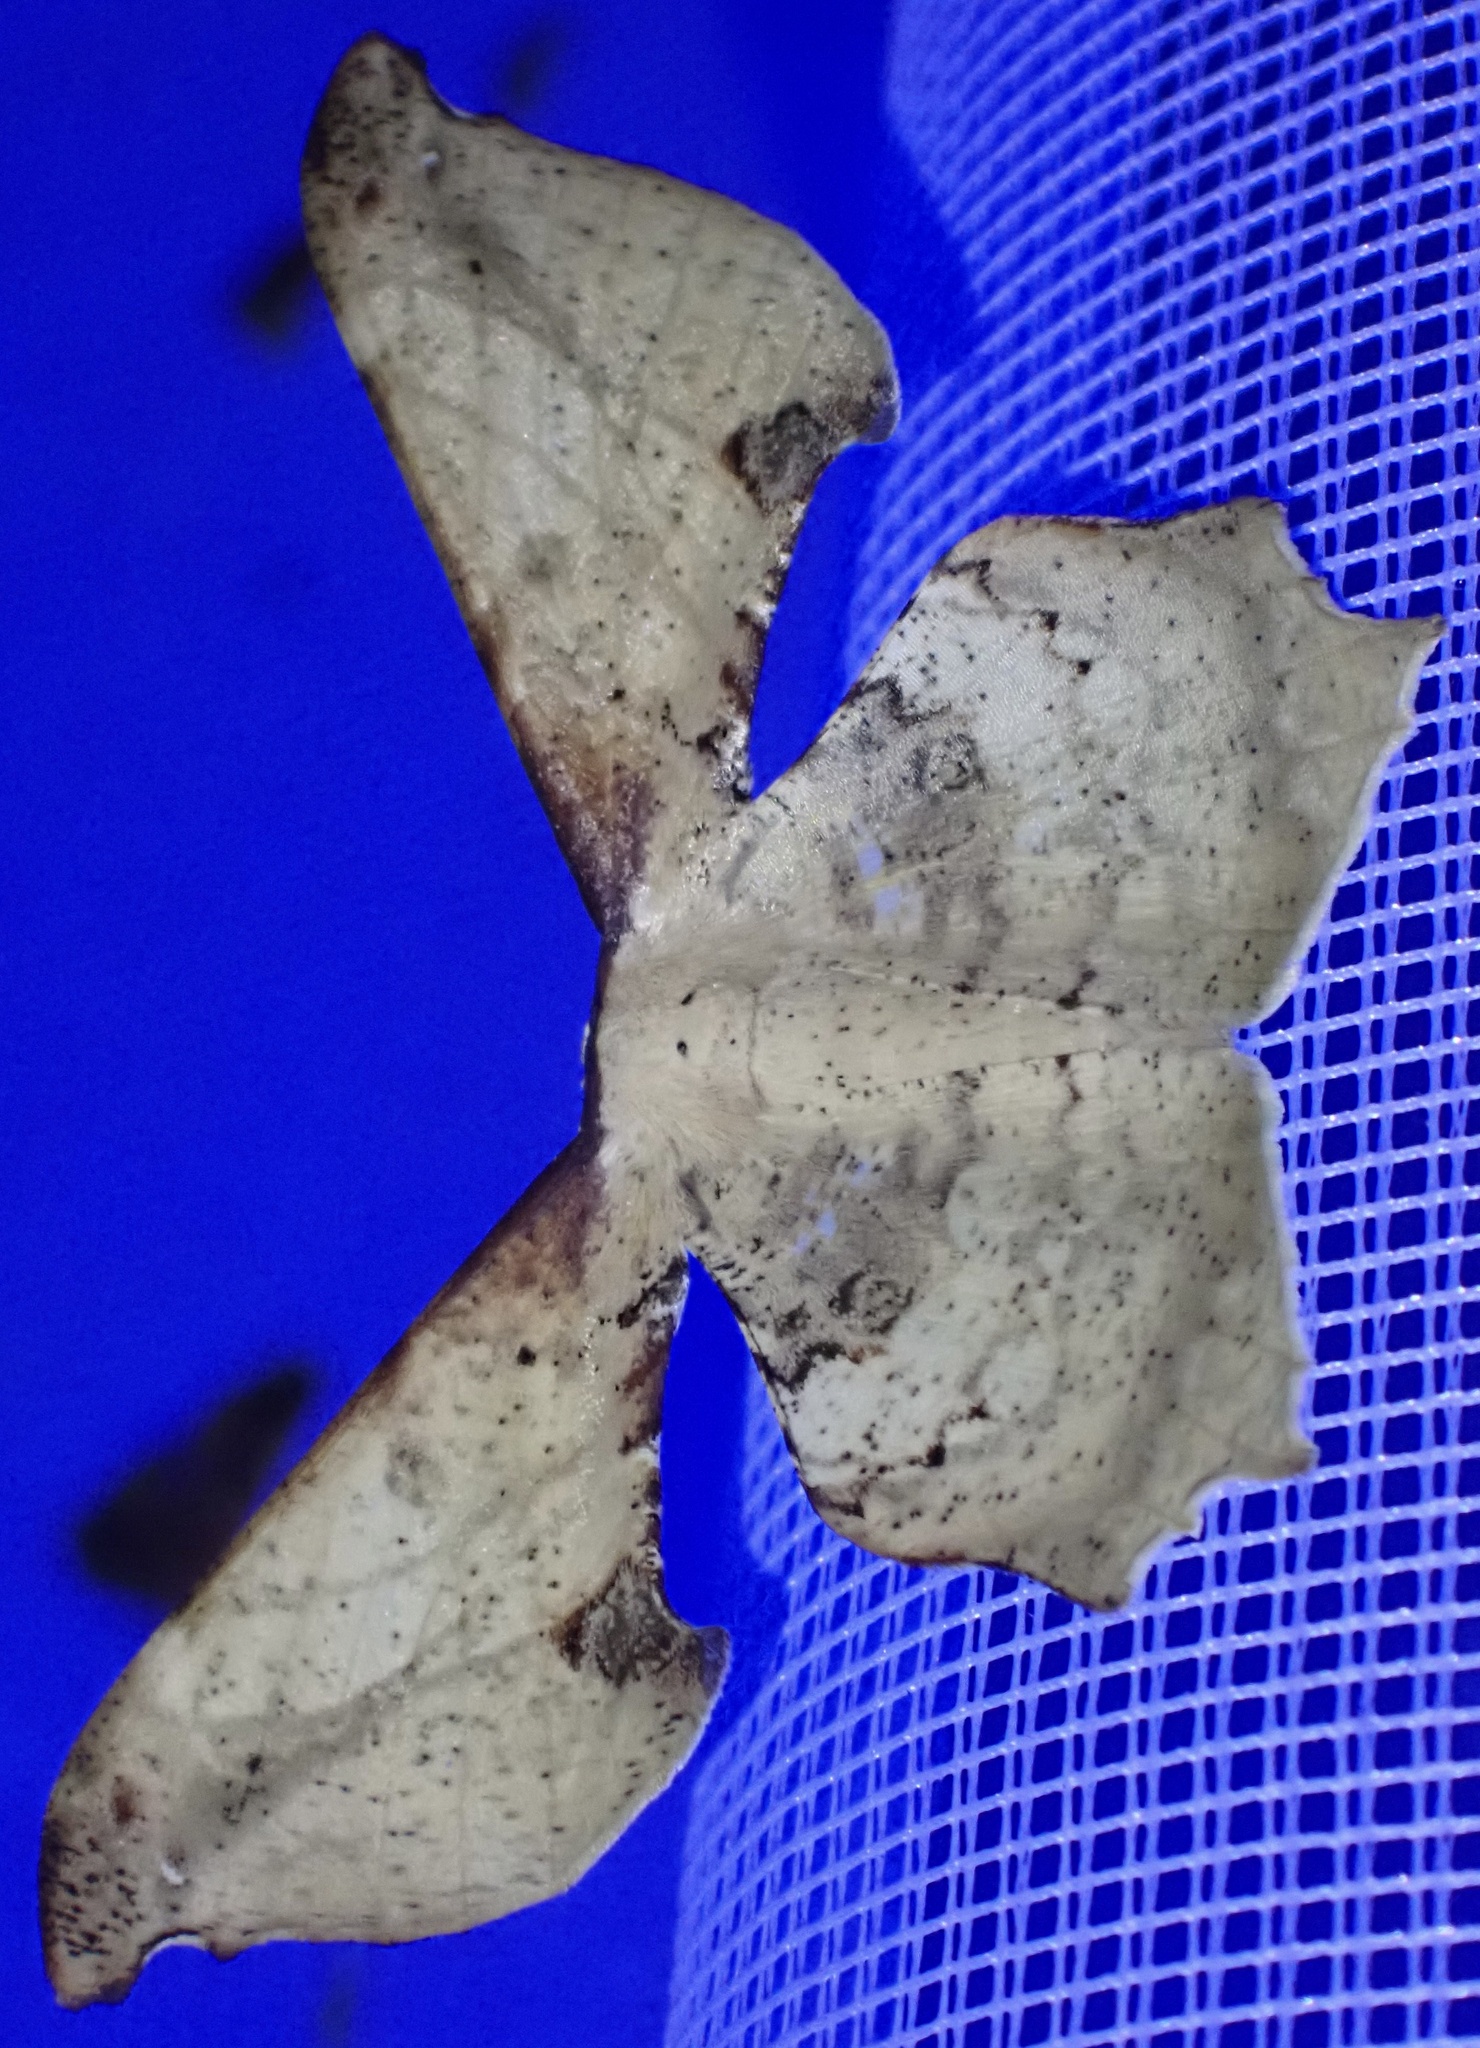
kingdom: Animalia
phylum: Arthropoda
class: Insecta
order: Lepidoptera
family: Geometridae
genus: Xylinophylla
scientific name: Xylinophylla maculata
